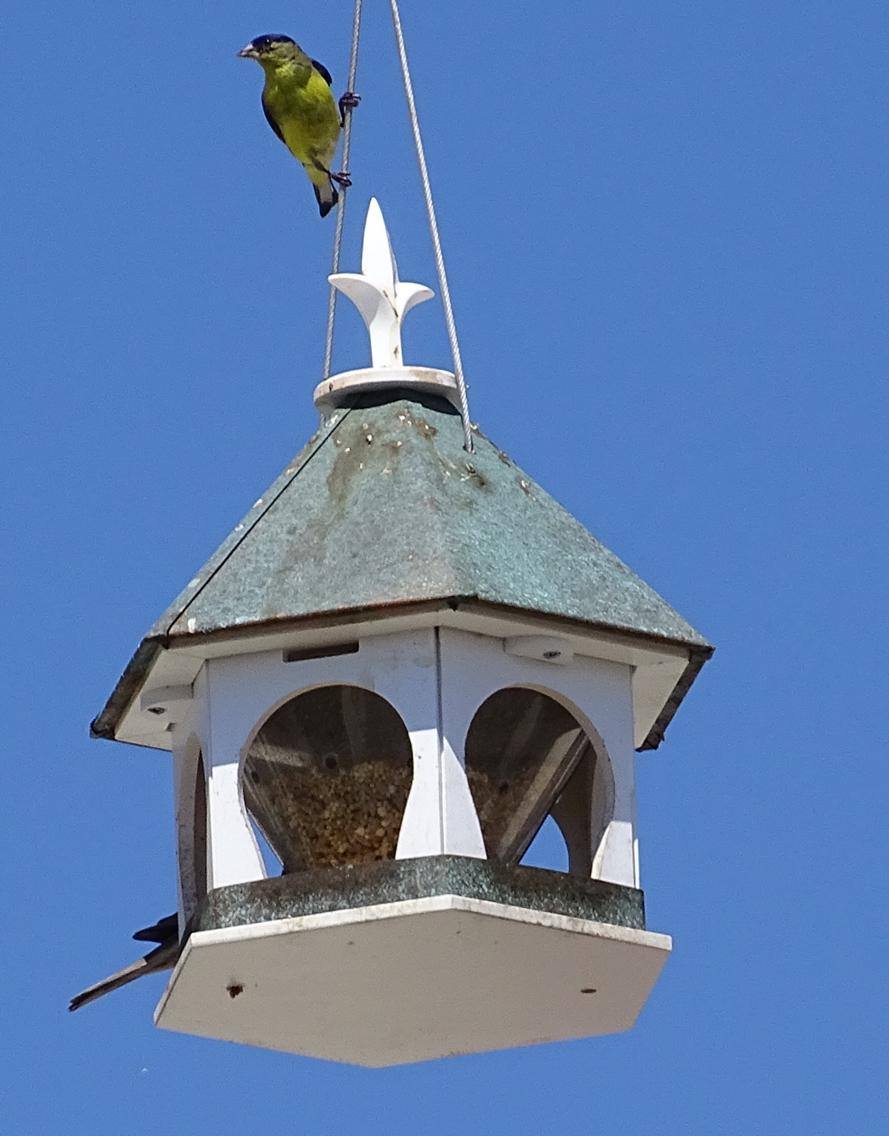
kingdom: Animalia
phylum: Chordata
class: Aves
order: Passeriformes
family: Fringillidae
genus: Spinus
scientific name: Spinus psaltria
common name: Lesser goldfinch
